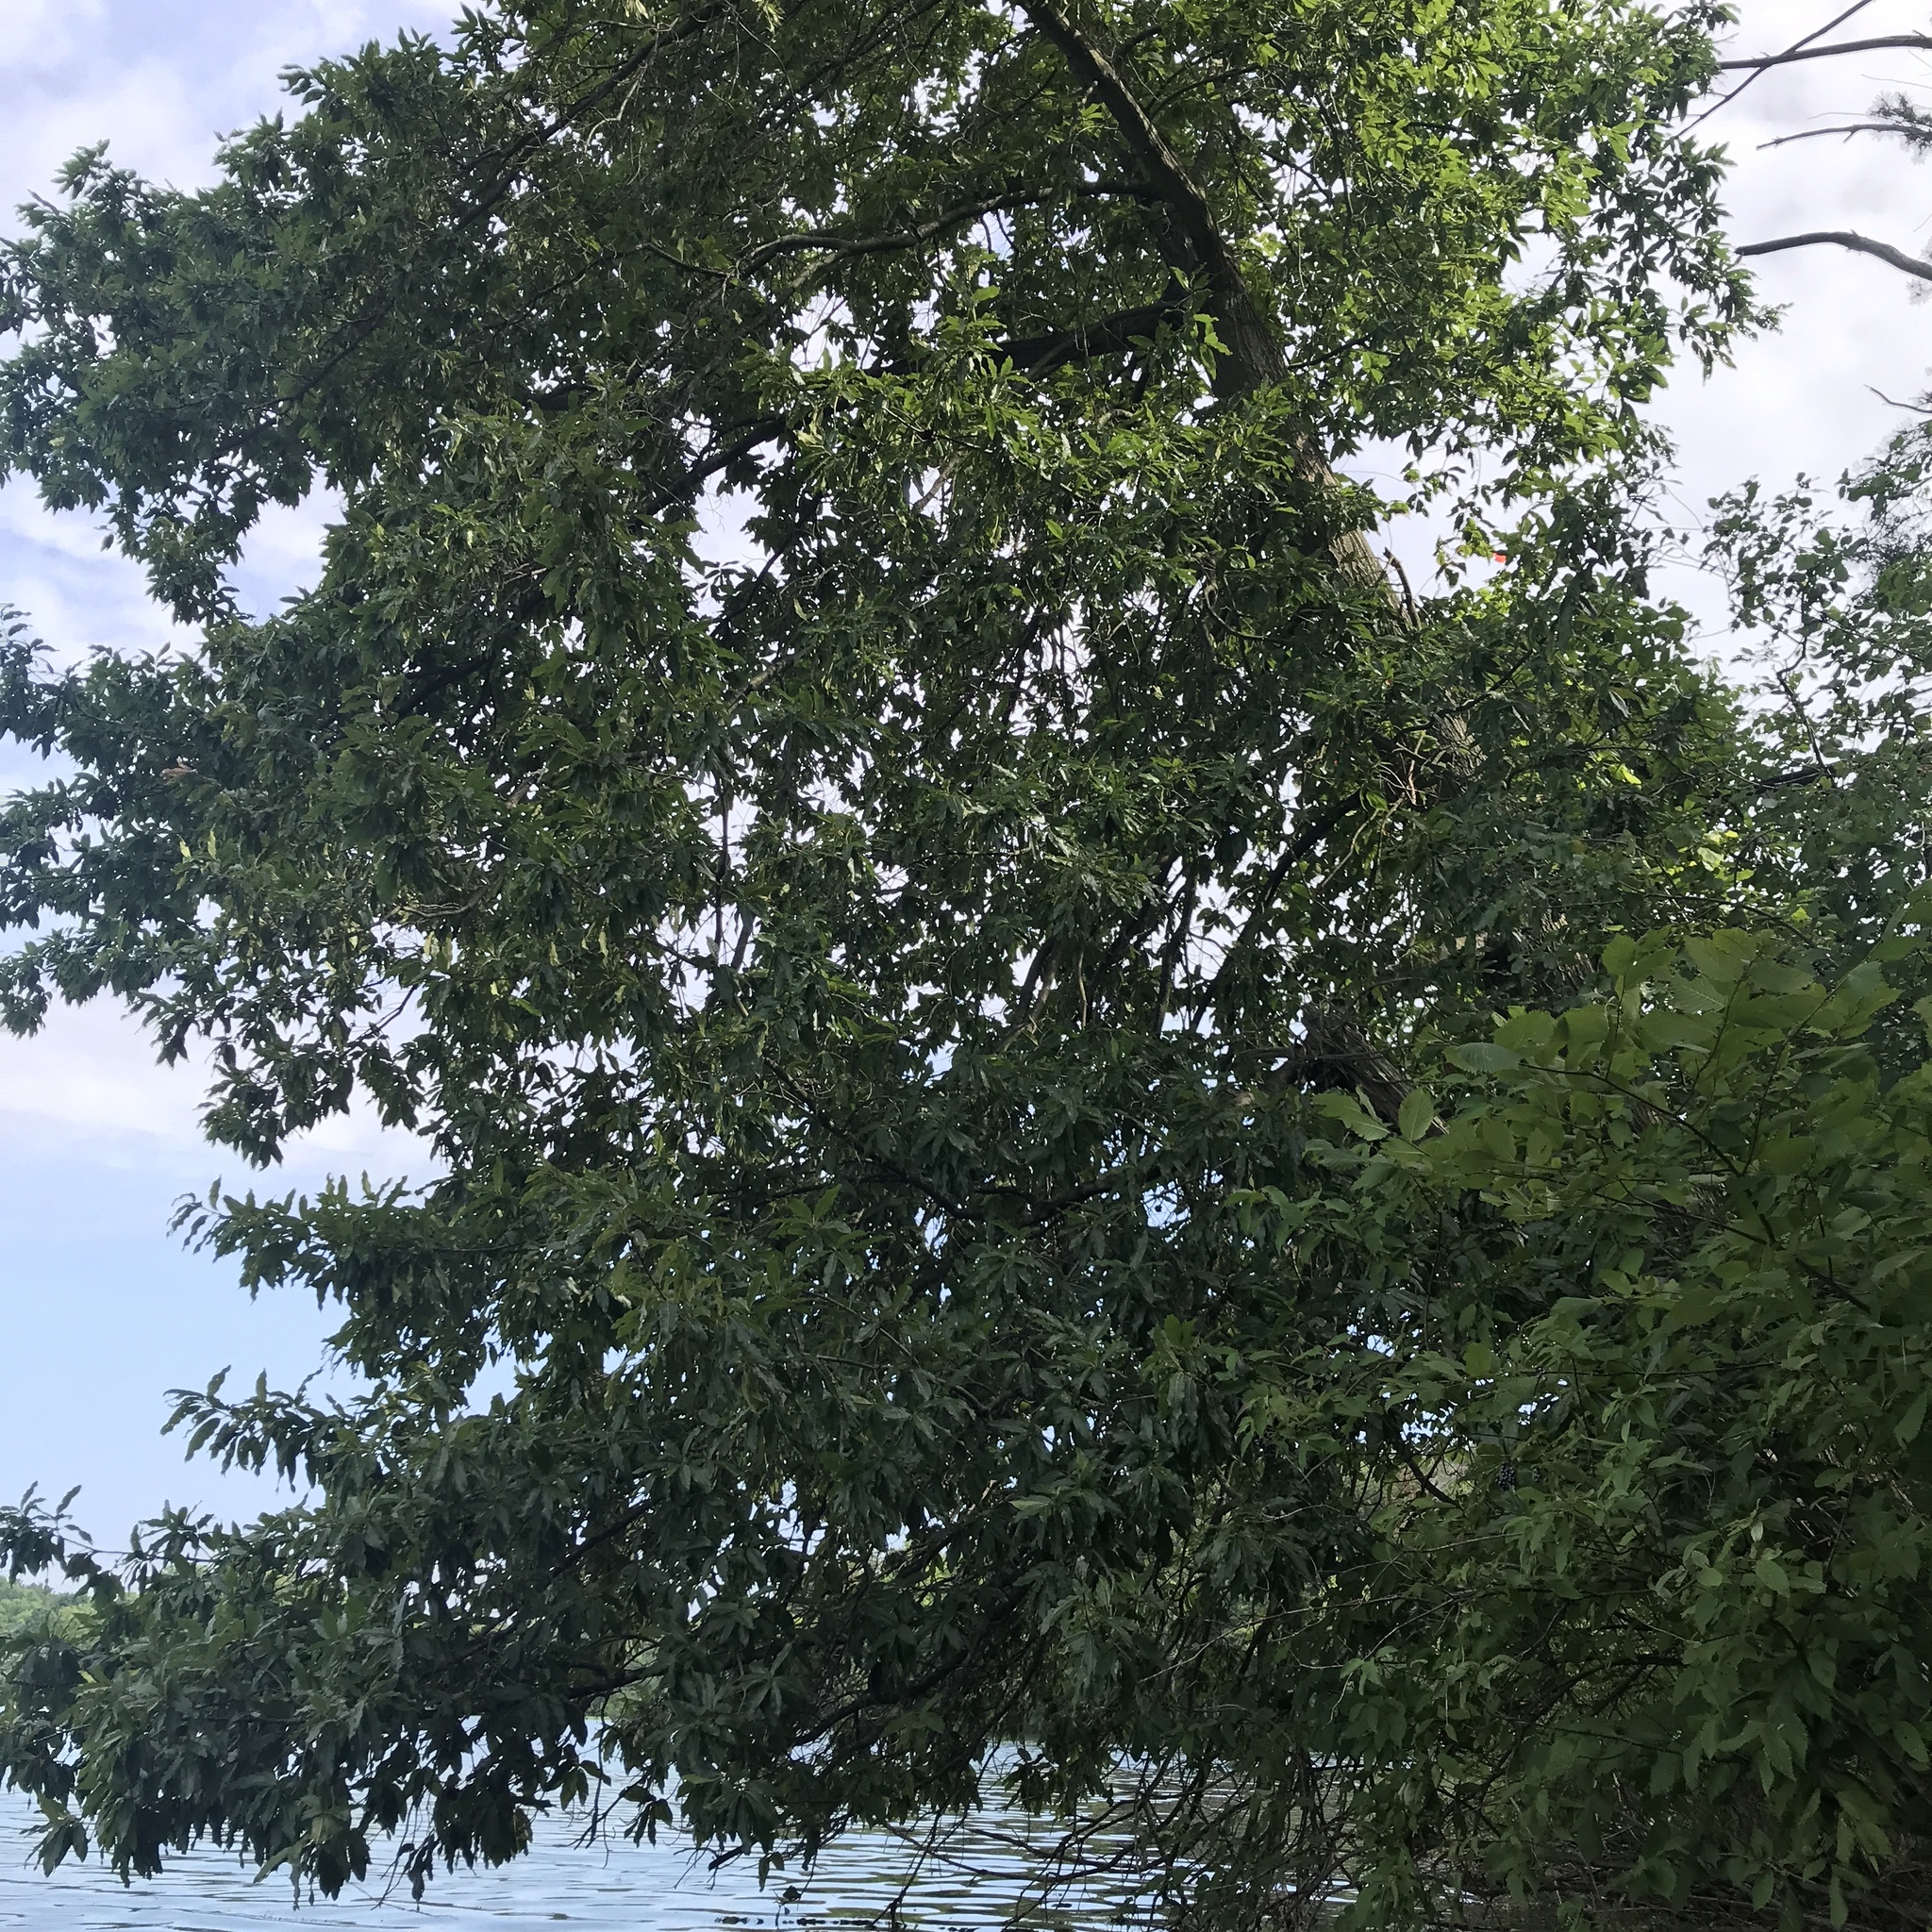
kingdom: Plantae
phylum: Tracheophyta
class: Magnoliopsida
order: Fagales
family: Fagaceae
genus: Quercus
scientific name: Quercus imbricaria
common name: Shingle oak
